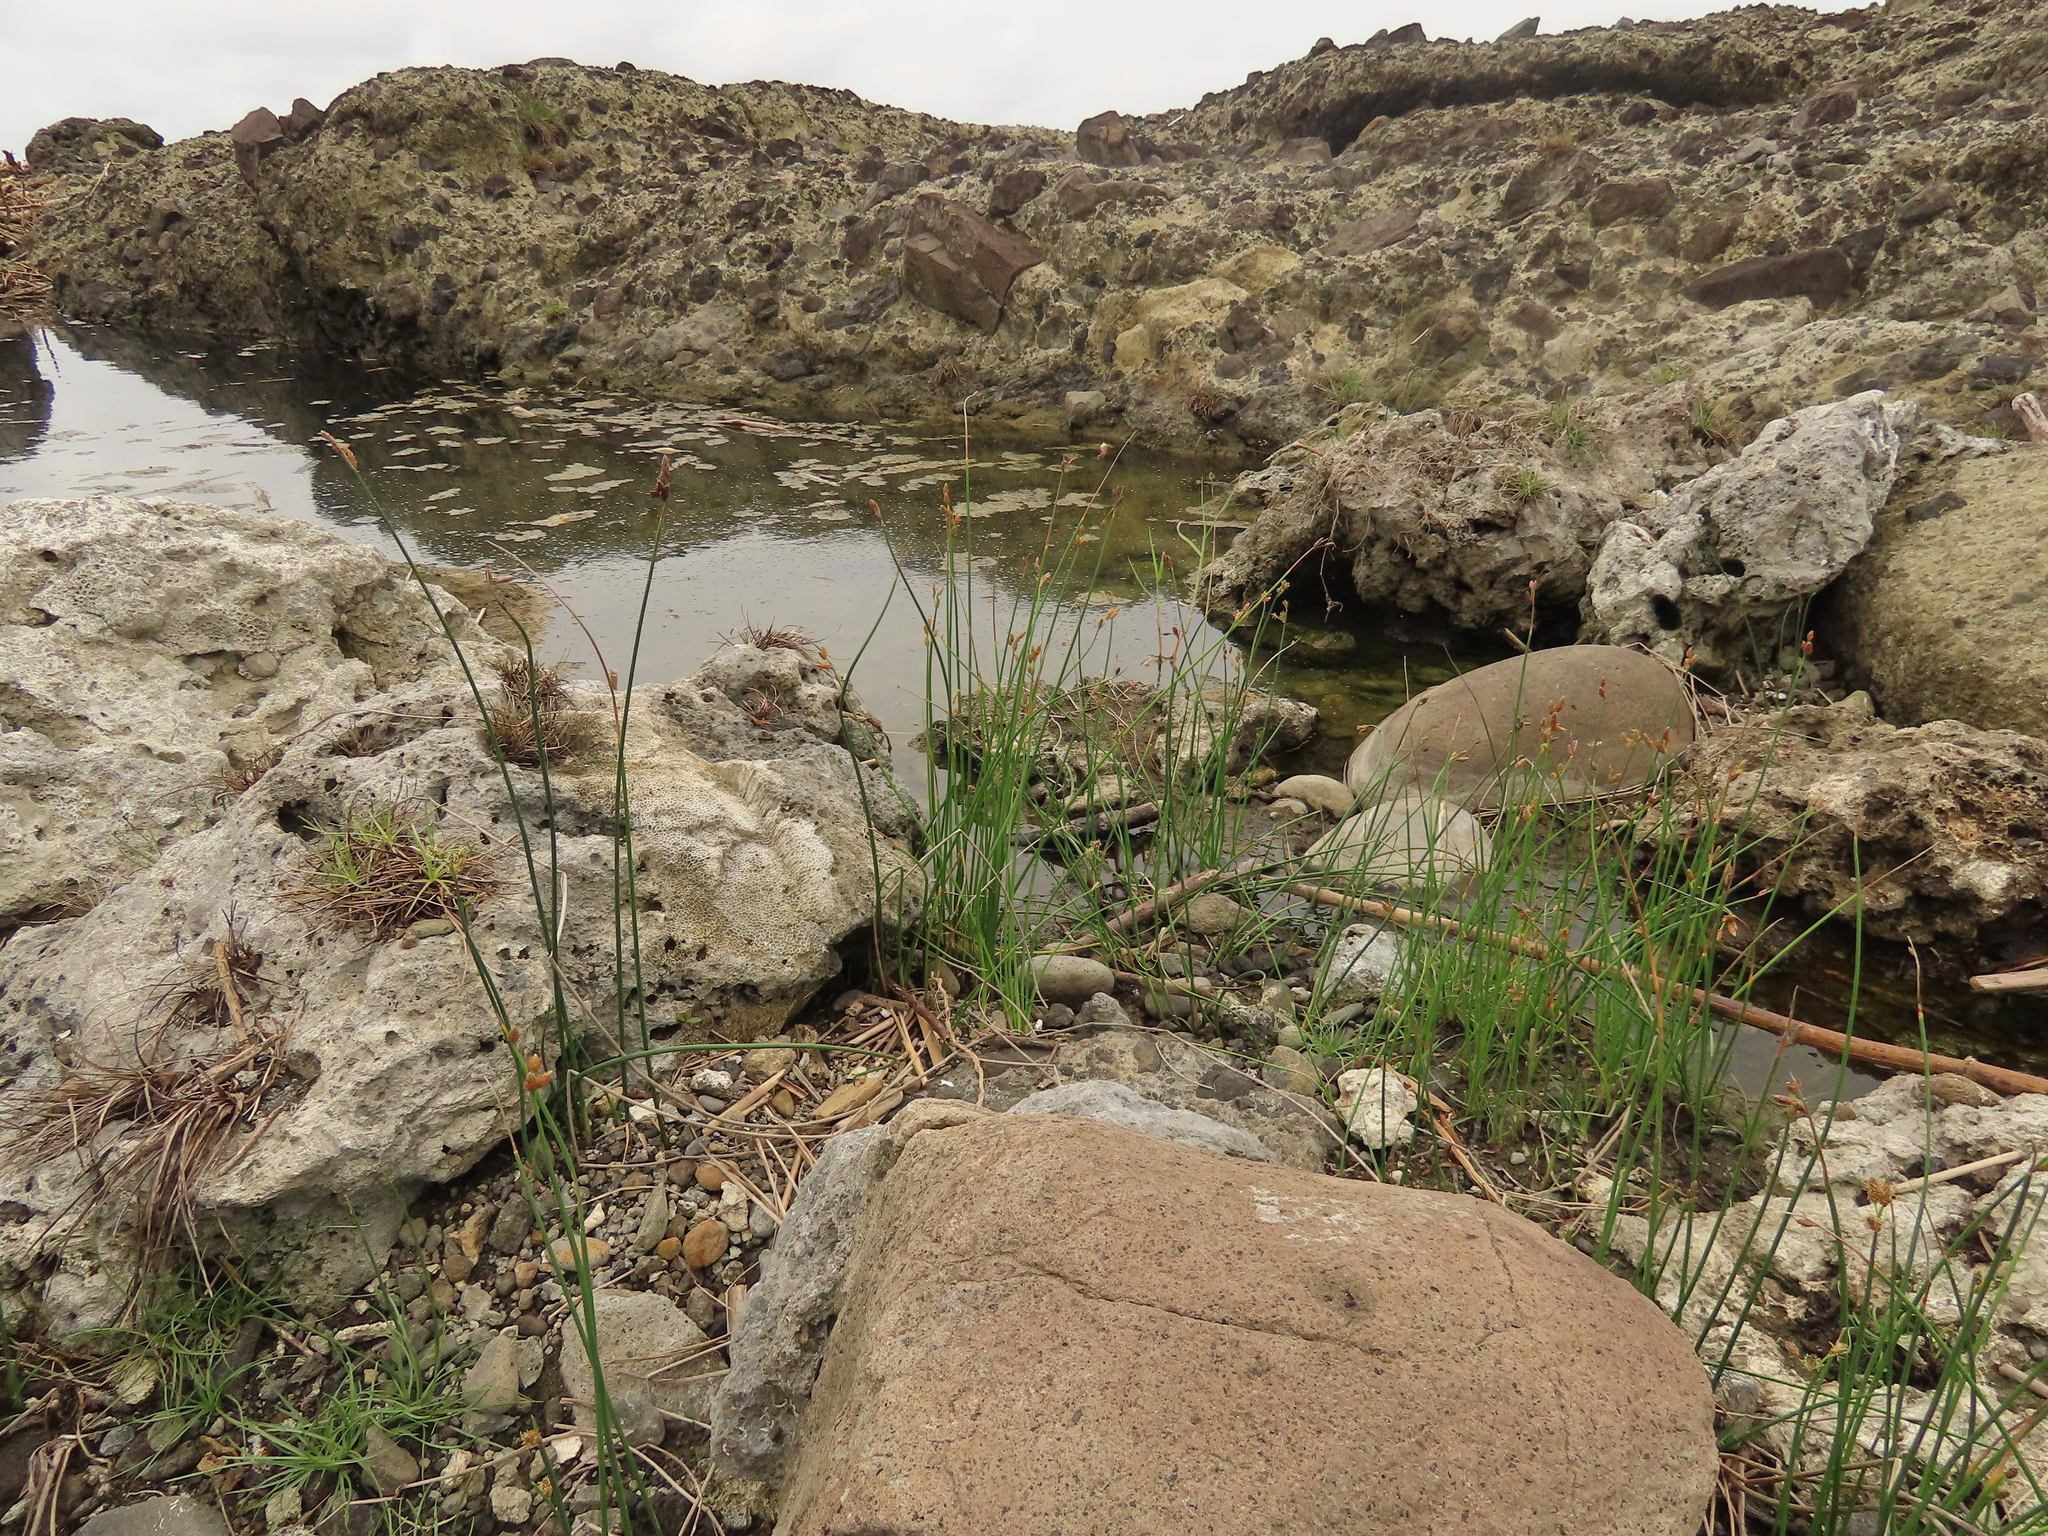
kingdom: Plantae
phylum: Tracheophyta
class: Liliopsida
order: Poales
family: Cyperaceae
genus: Schoenoplectus
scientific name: Schoenoplectus tabernaemontani
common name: Grey club-rush
